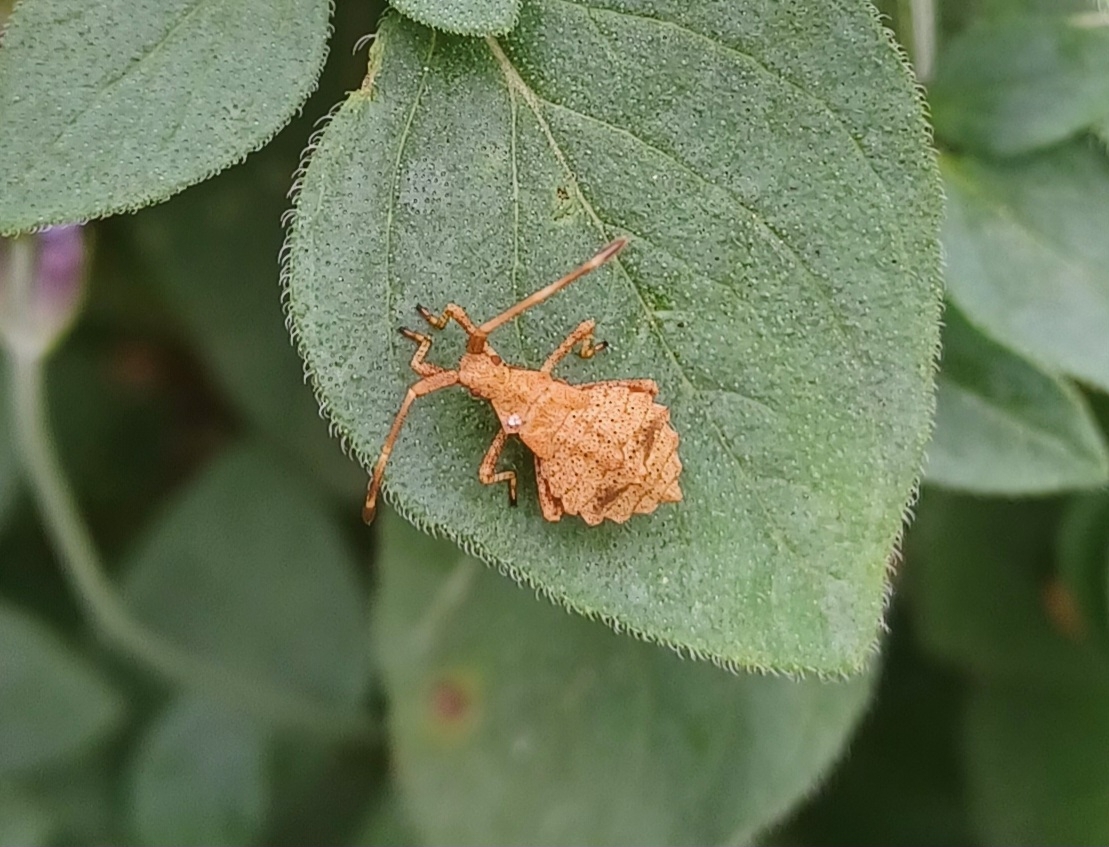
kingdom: Animalia
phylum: Arthropoda
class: Insecta
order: Hemiptera
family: Coreidae
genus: Coreus
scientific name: Coreus marginatus
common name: Dock bug
